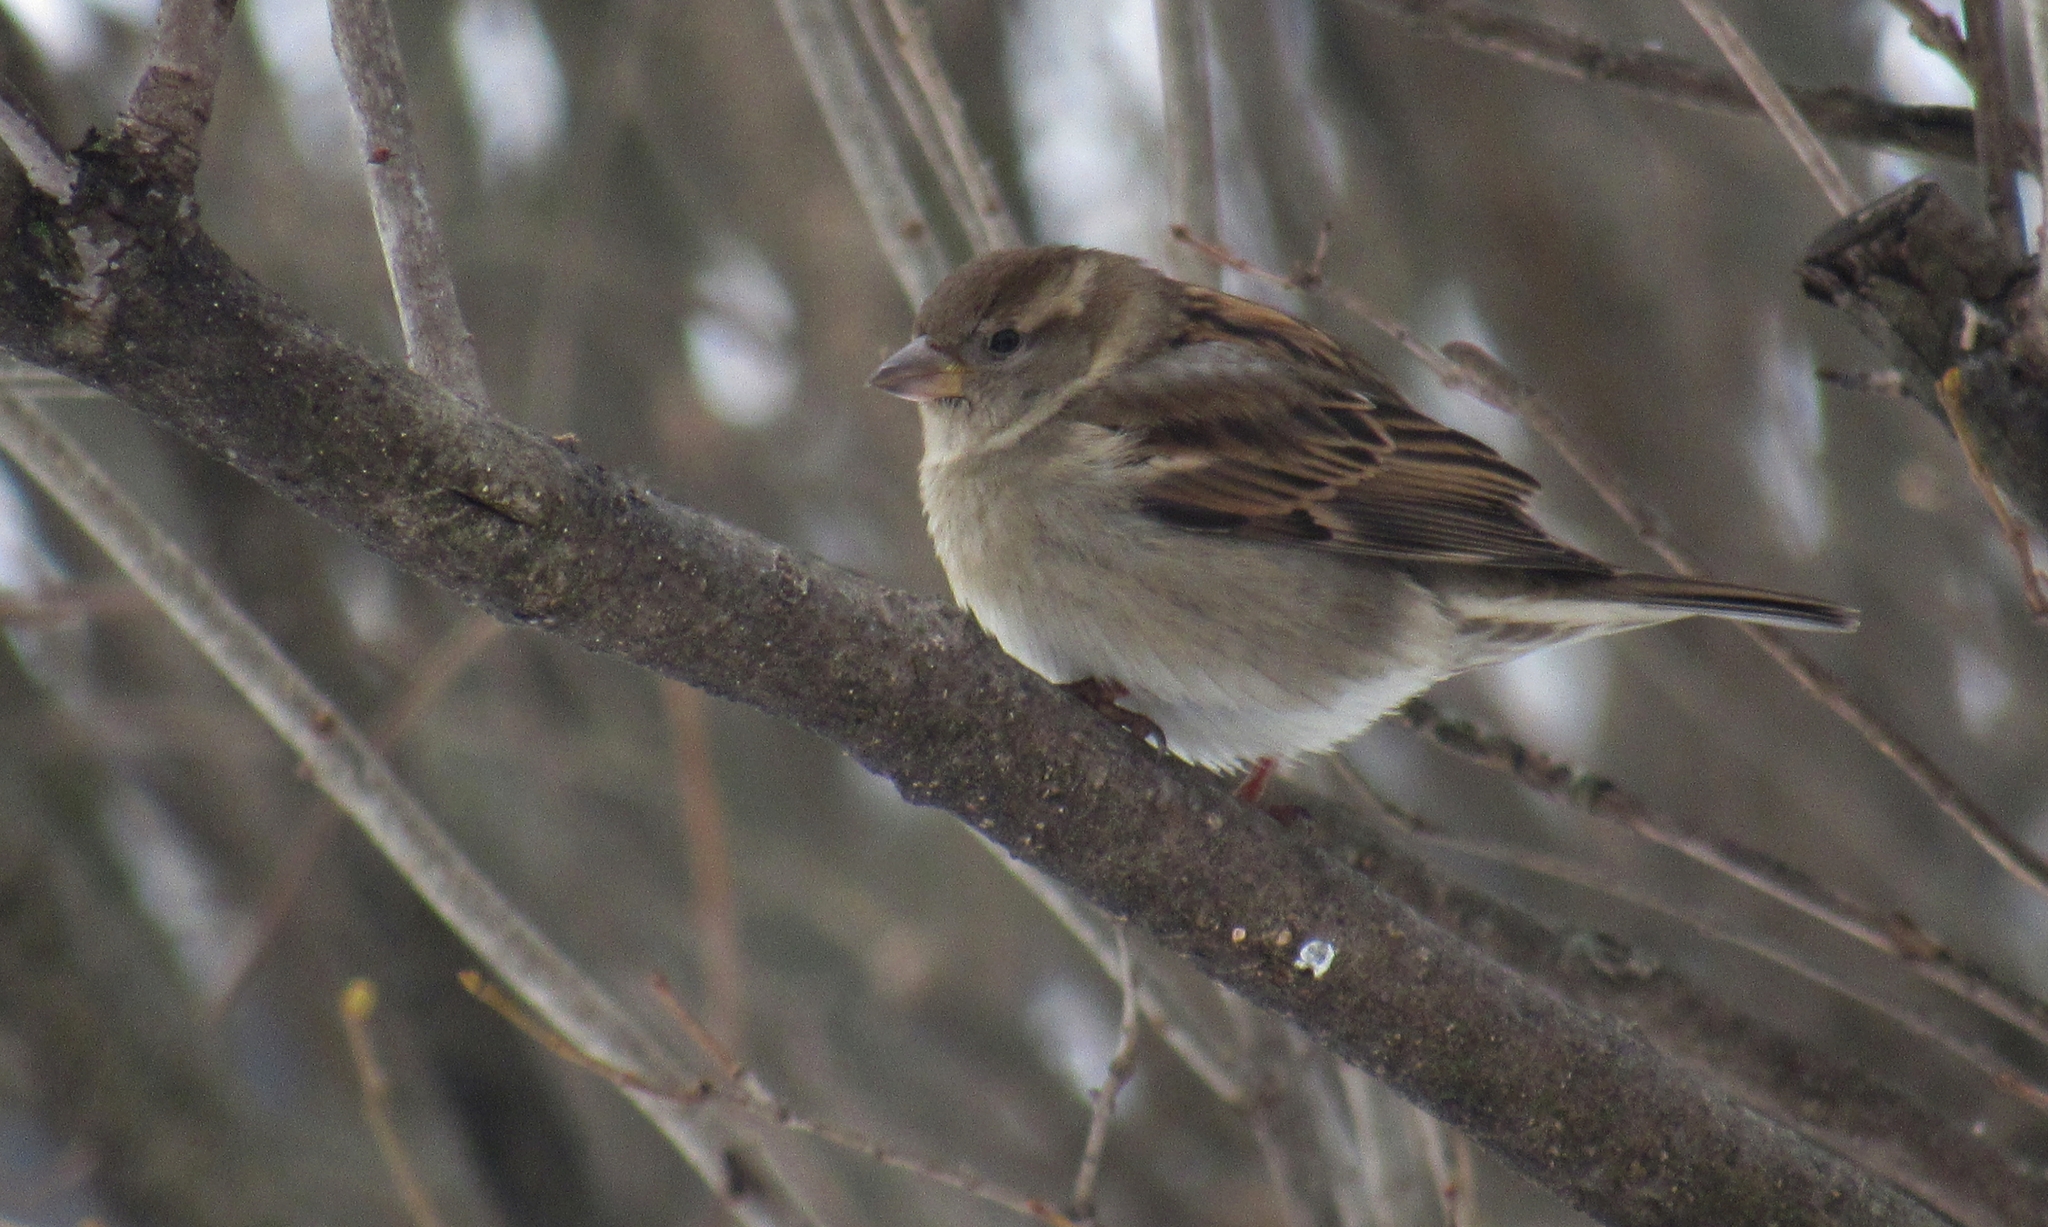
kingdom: Animalia
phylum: Chordata
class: Aves
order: Passeriformes
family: Passeridae
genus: Passer
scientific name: Passer domesticus
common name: House sparrow
